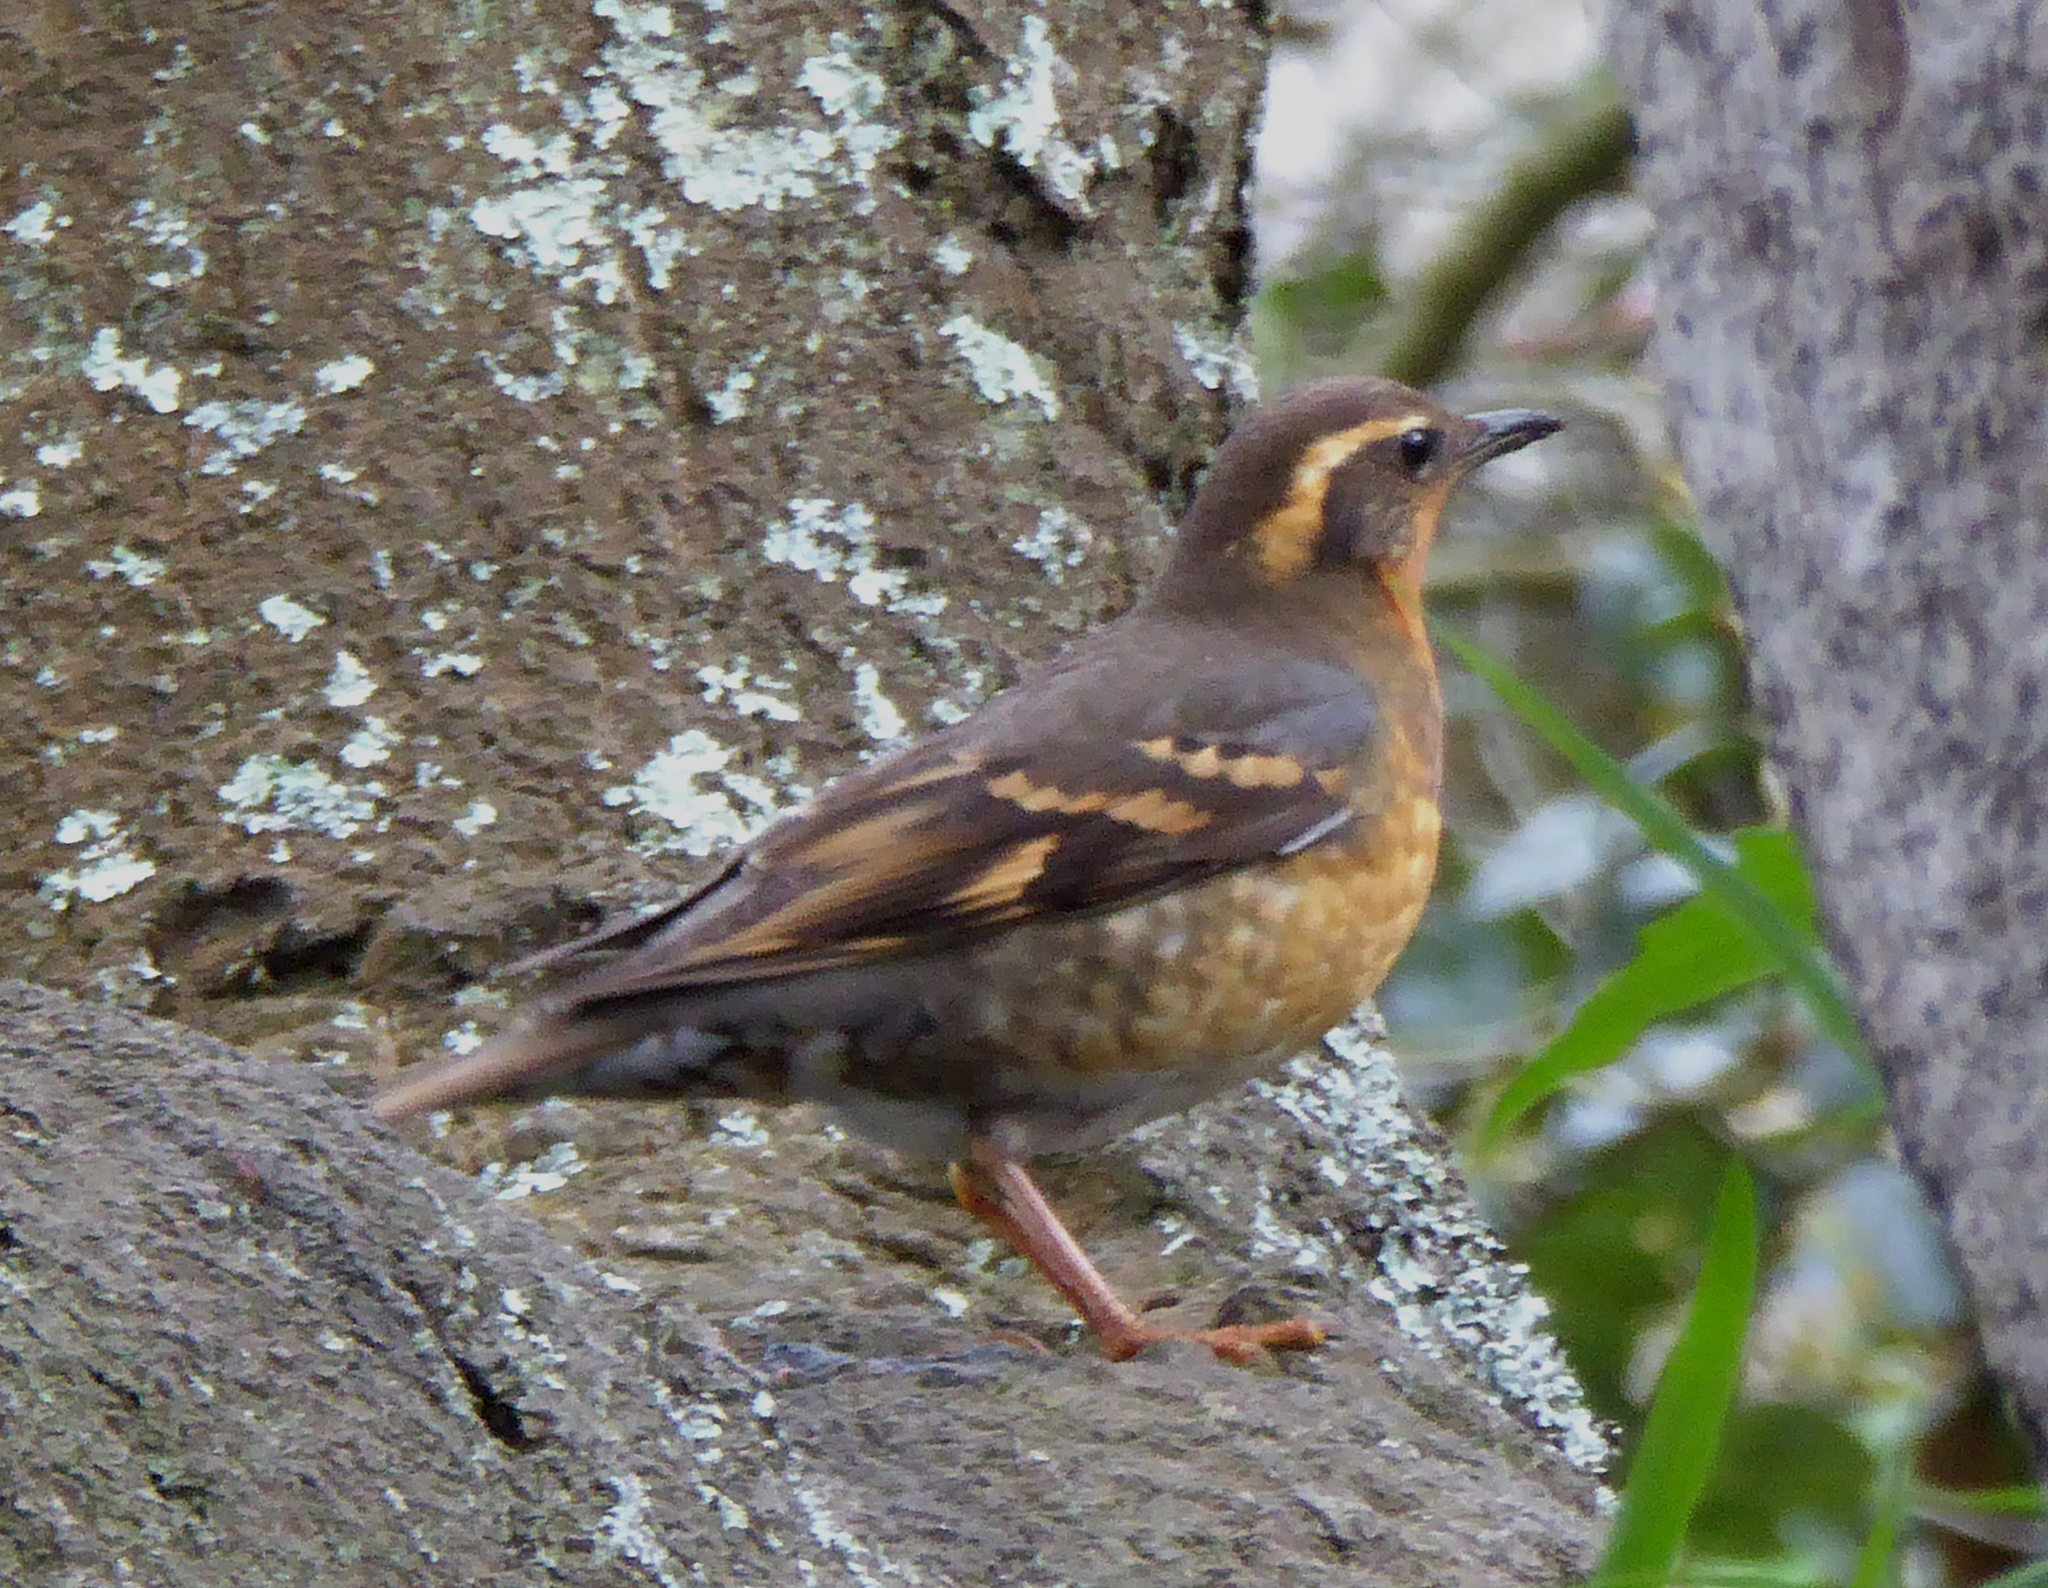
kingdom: Animalia
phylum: Chordata
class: Aves
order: Passeriformes
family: Turdidae
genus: Ixoreus
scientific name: Ixoreus naevius
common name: Varied thrush
